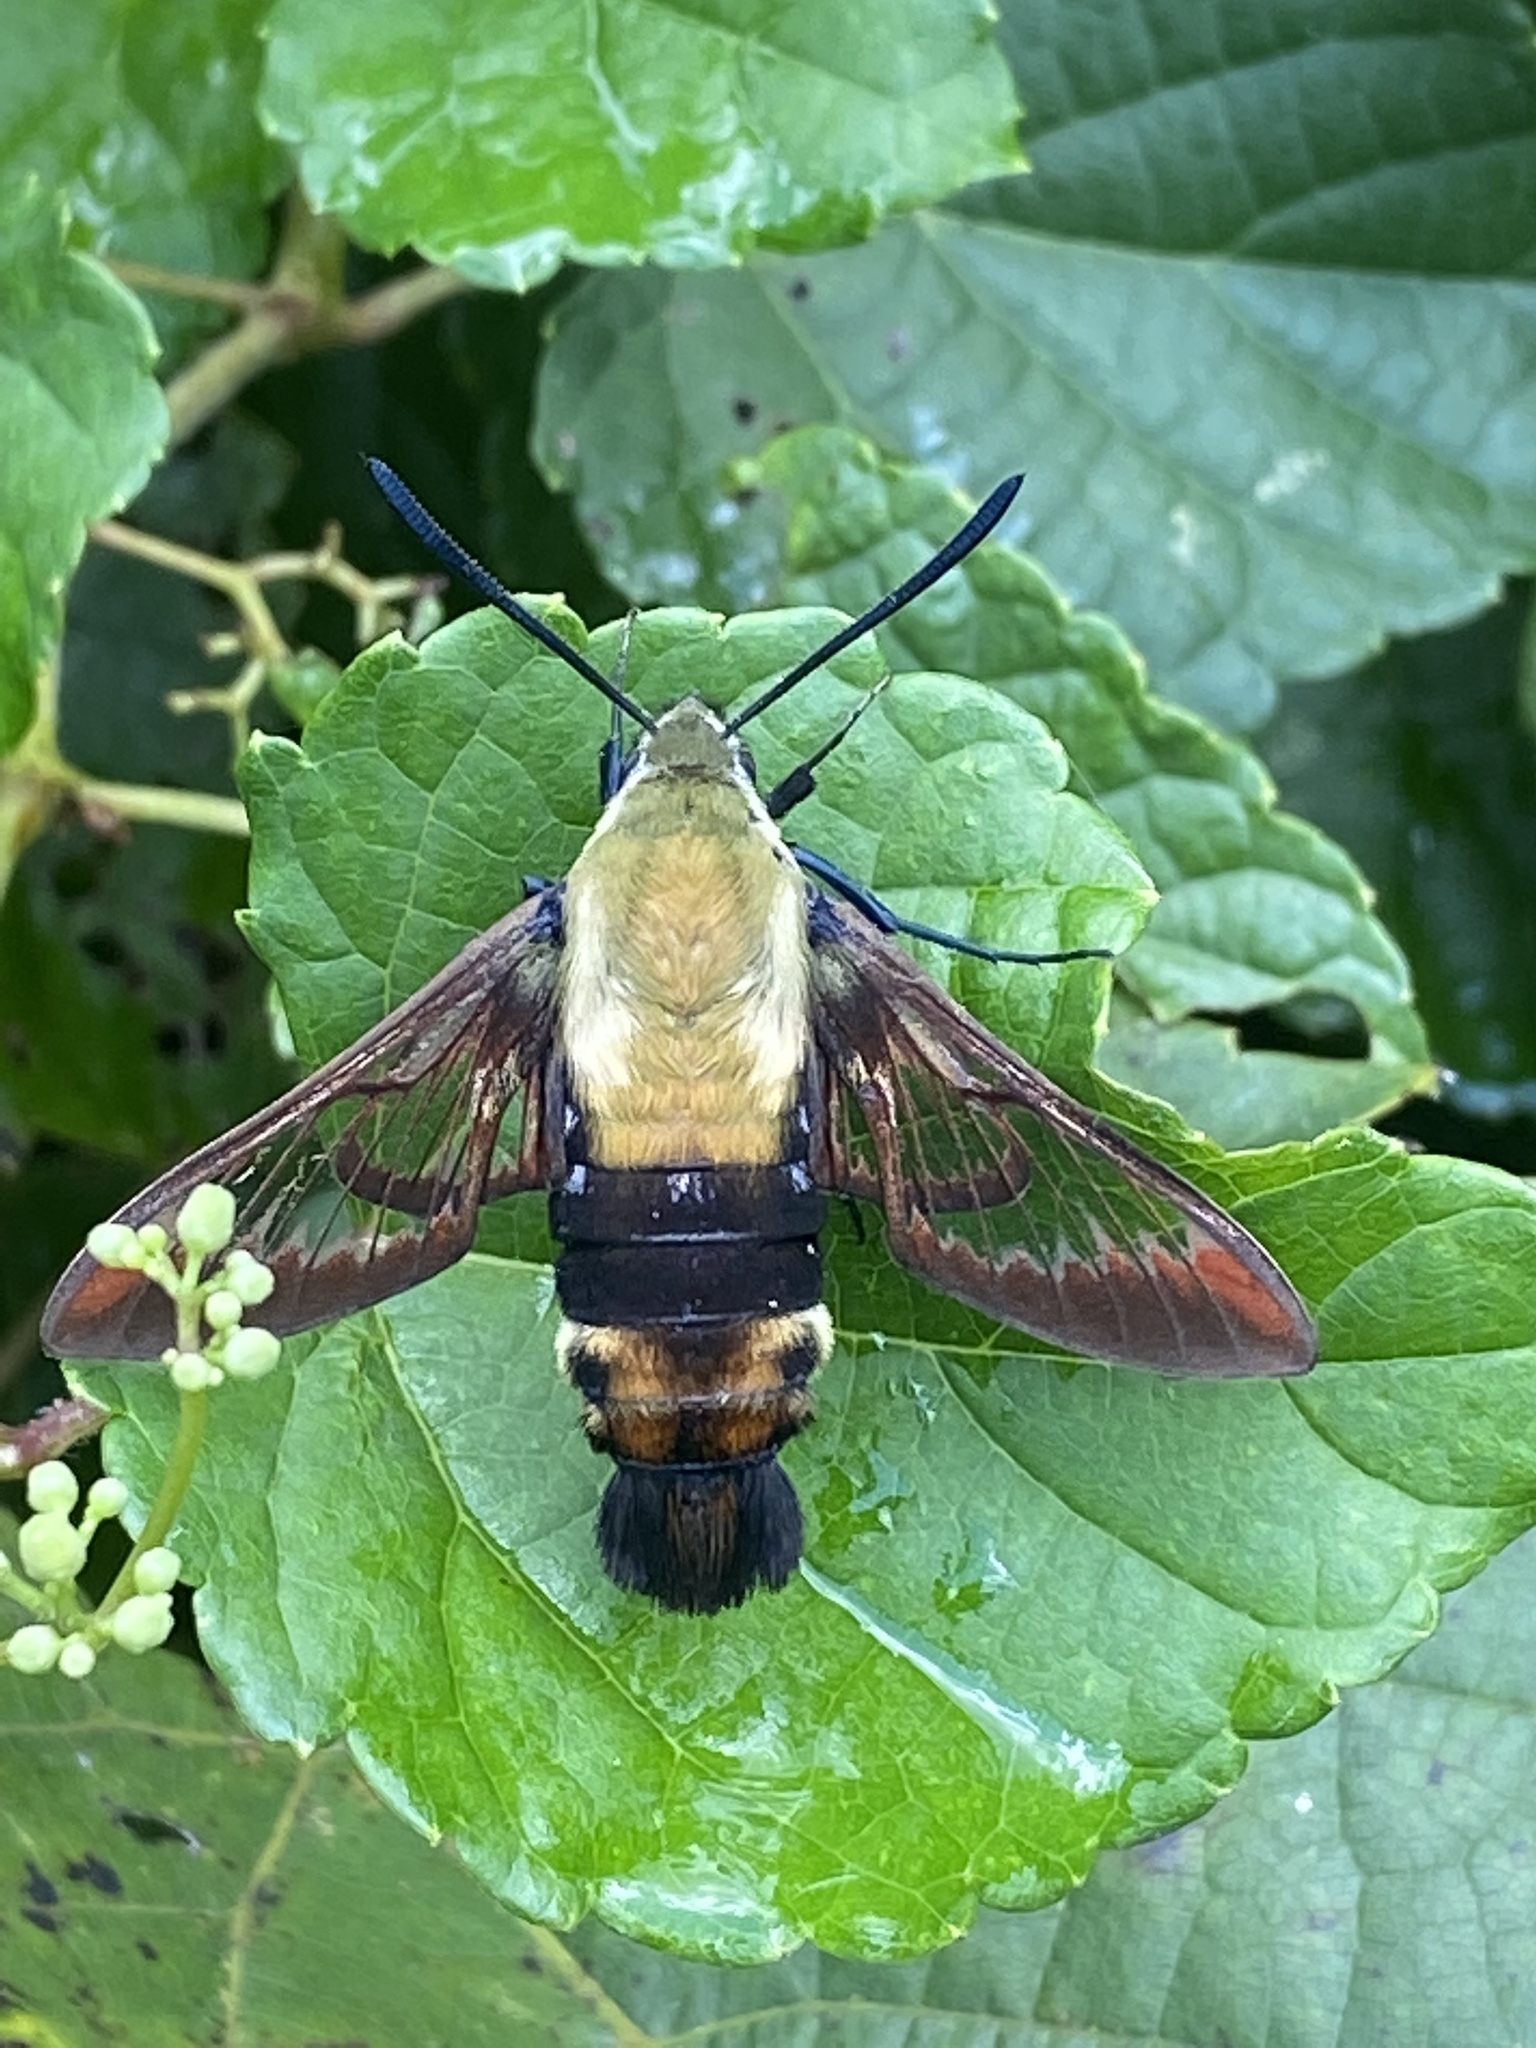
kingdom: Animalia
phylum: Arthropoda
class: Insecta
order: Lepidoptera
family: Sphingidae
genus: Hemaris
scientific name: Hemaris diffinis
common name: Bumblebee moth
